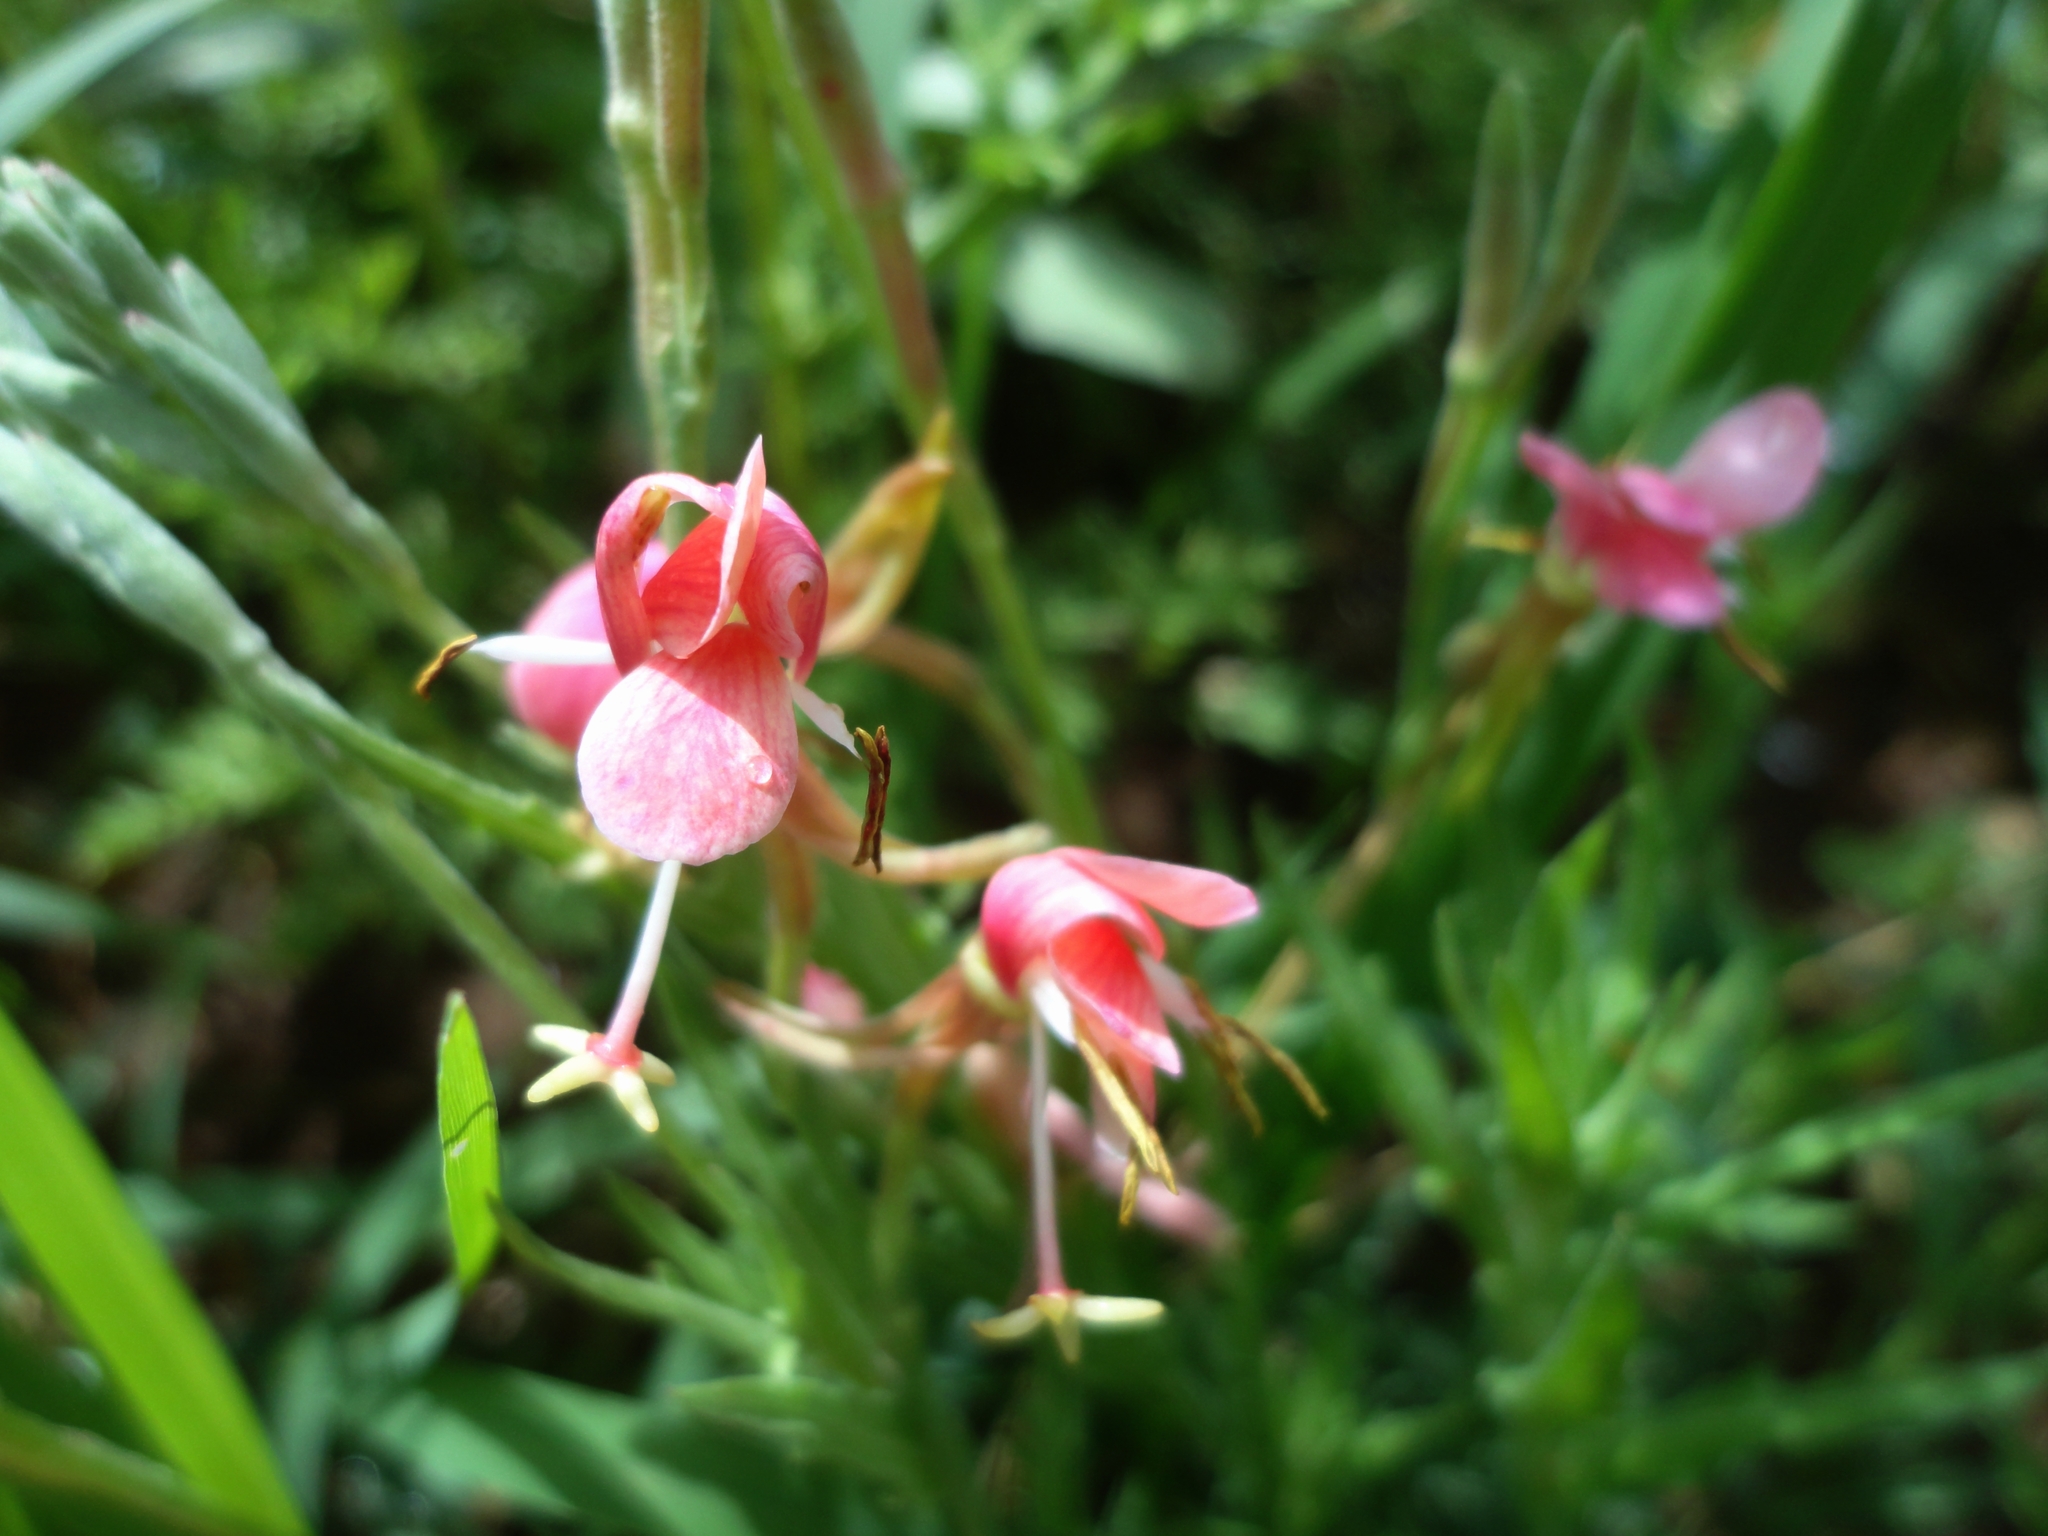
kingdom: Plantae
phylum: Tracheophyta
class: Magnoliopsida
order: Myrtales
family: Onagraceae
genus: Oenothera
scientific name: Oenothera suffrutescens
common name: Scarlet beeblossom
